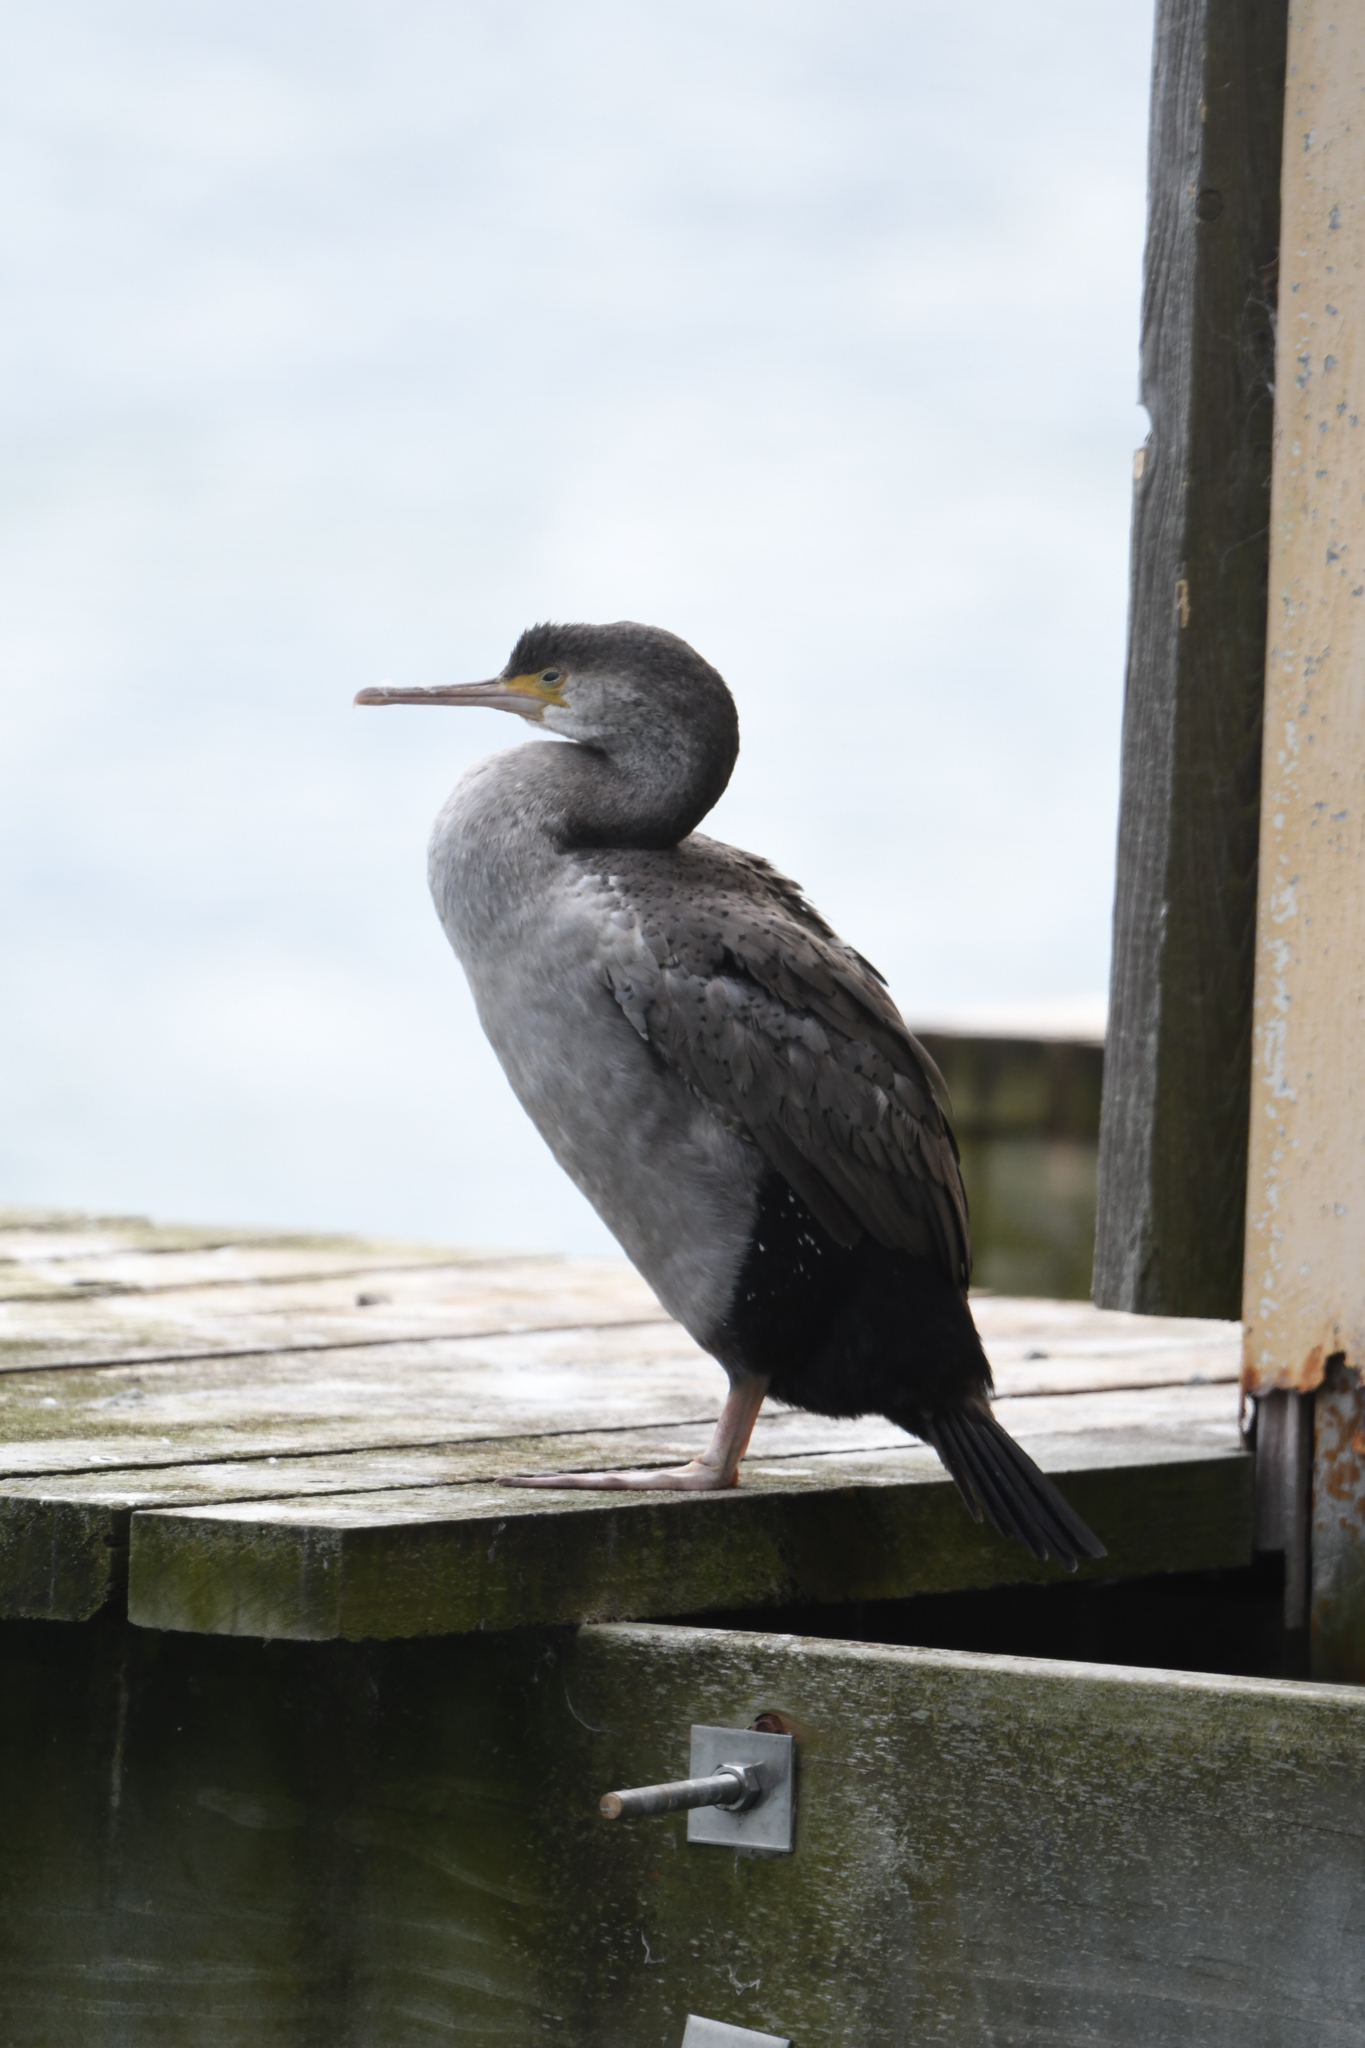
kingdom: Animalia
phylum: Chordata
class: Aves
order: Suliformes
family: Phalacrocoracidae
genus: Phalacrocorax
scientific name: Phalacrocorax punctatus
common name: Spotted shag
